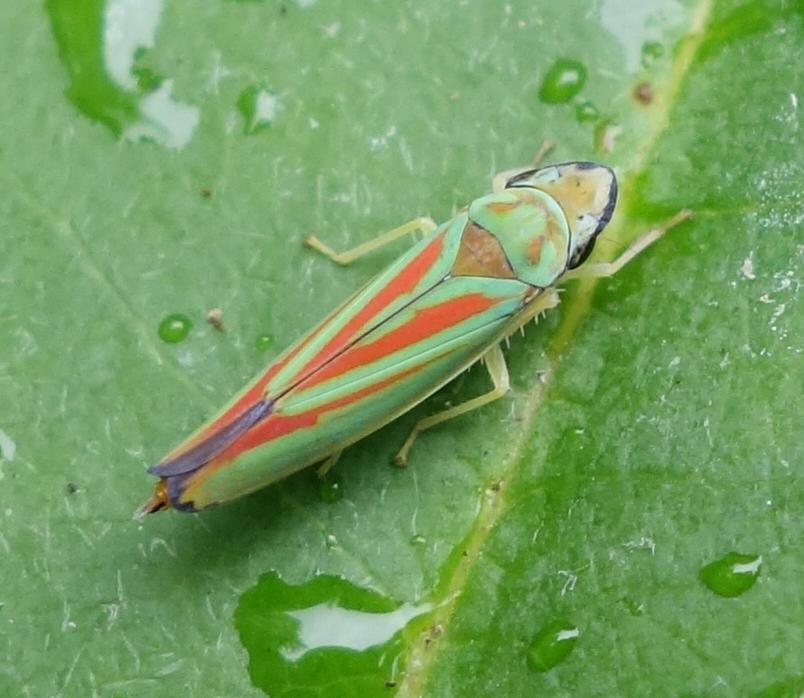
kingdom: Animalia
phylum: Arthropoda
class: Insecta
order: Hemiptera
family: Cicadellidae
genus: Graphocephala
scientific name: Graphocephala fennahi
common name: Rhododendron leafhopper
